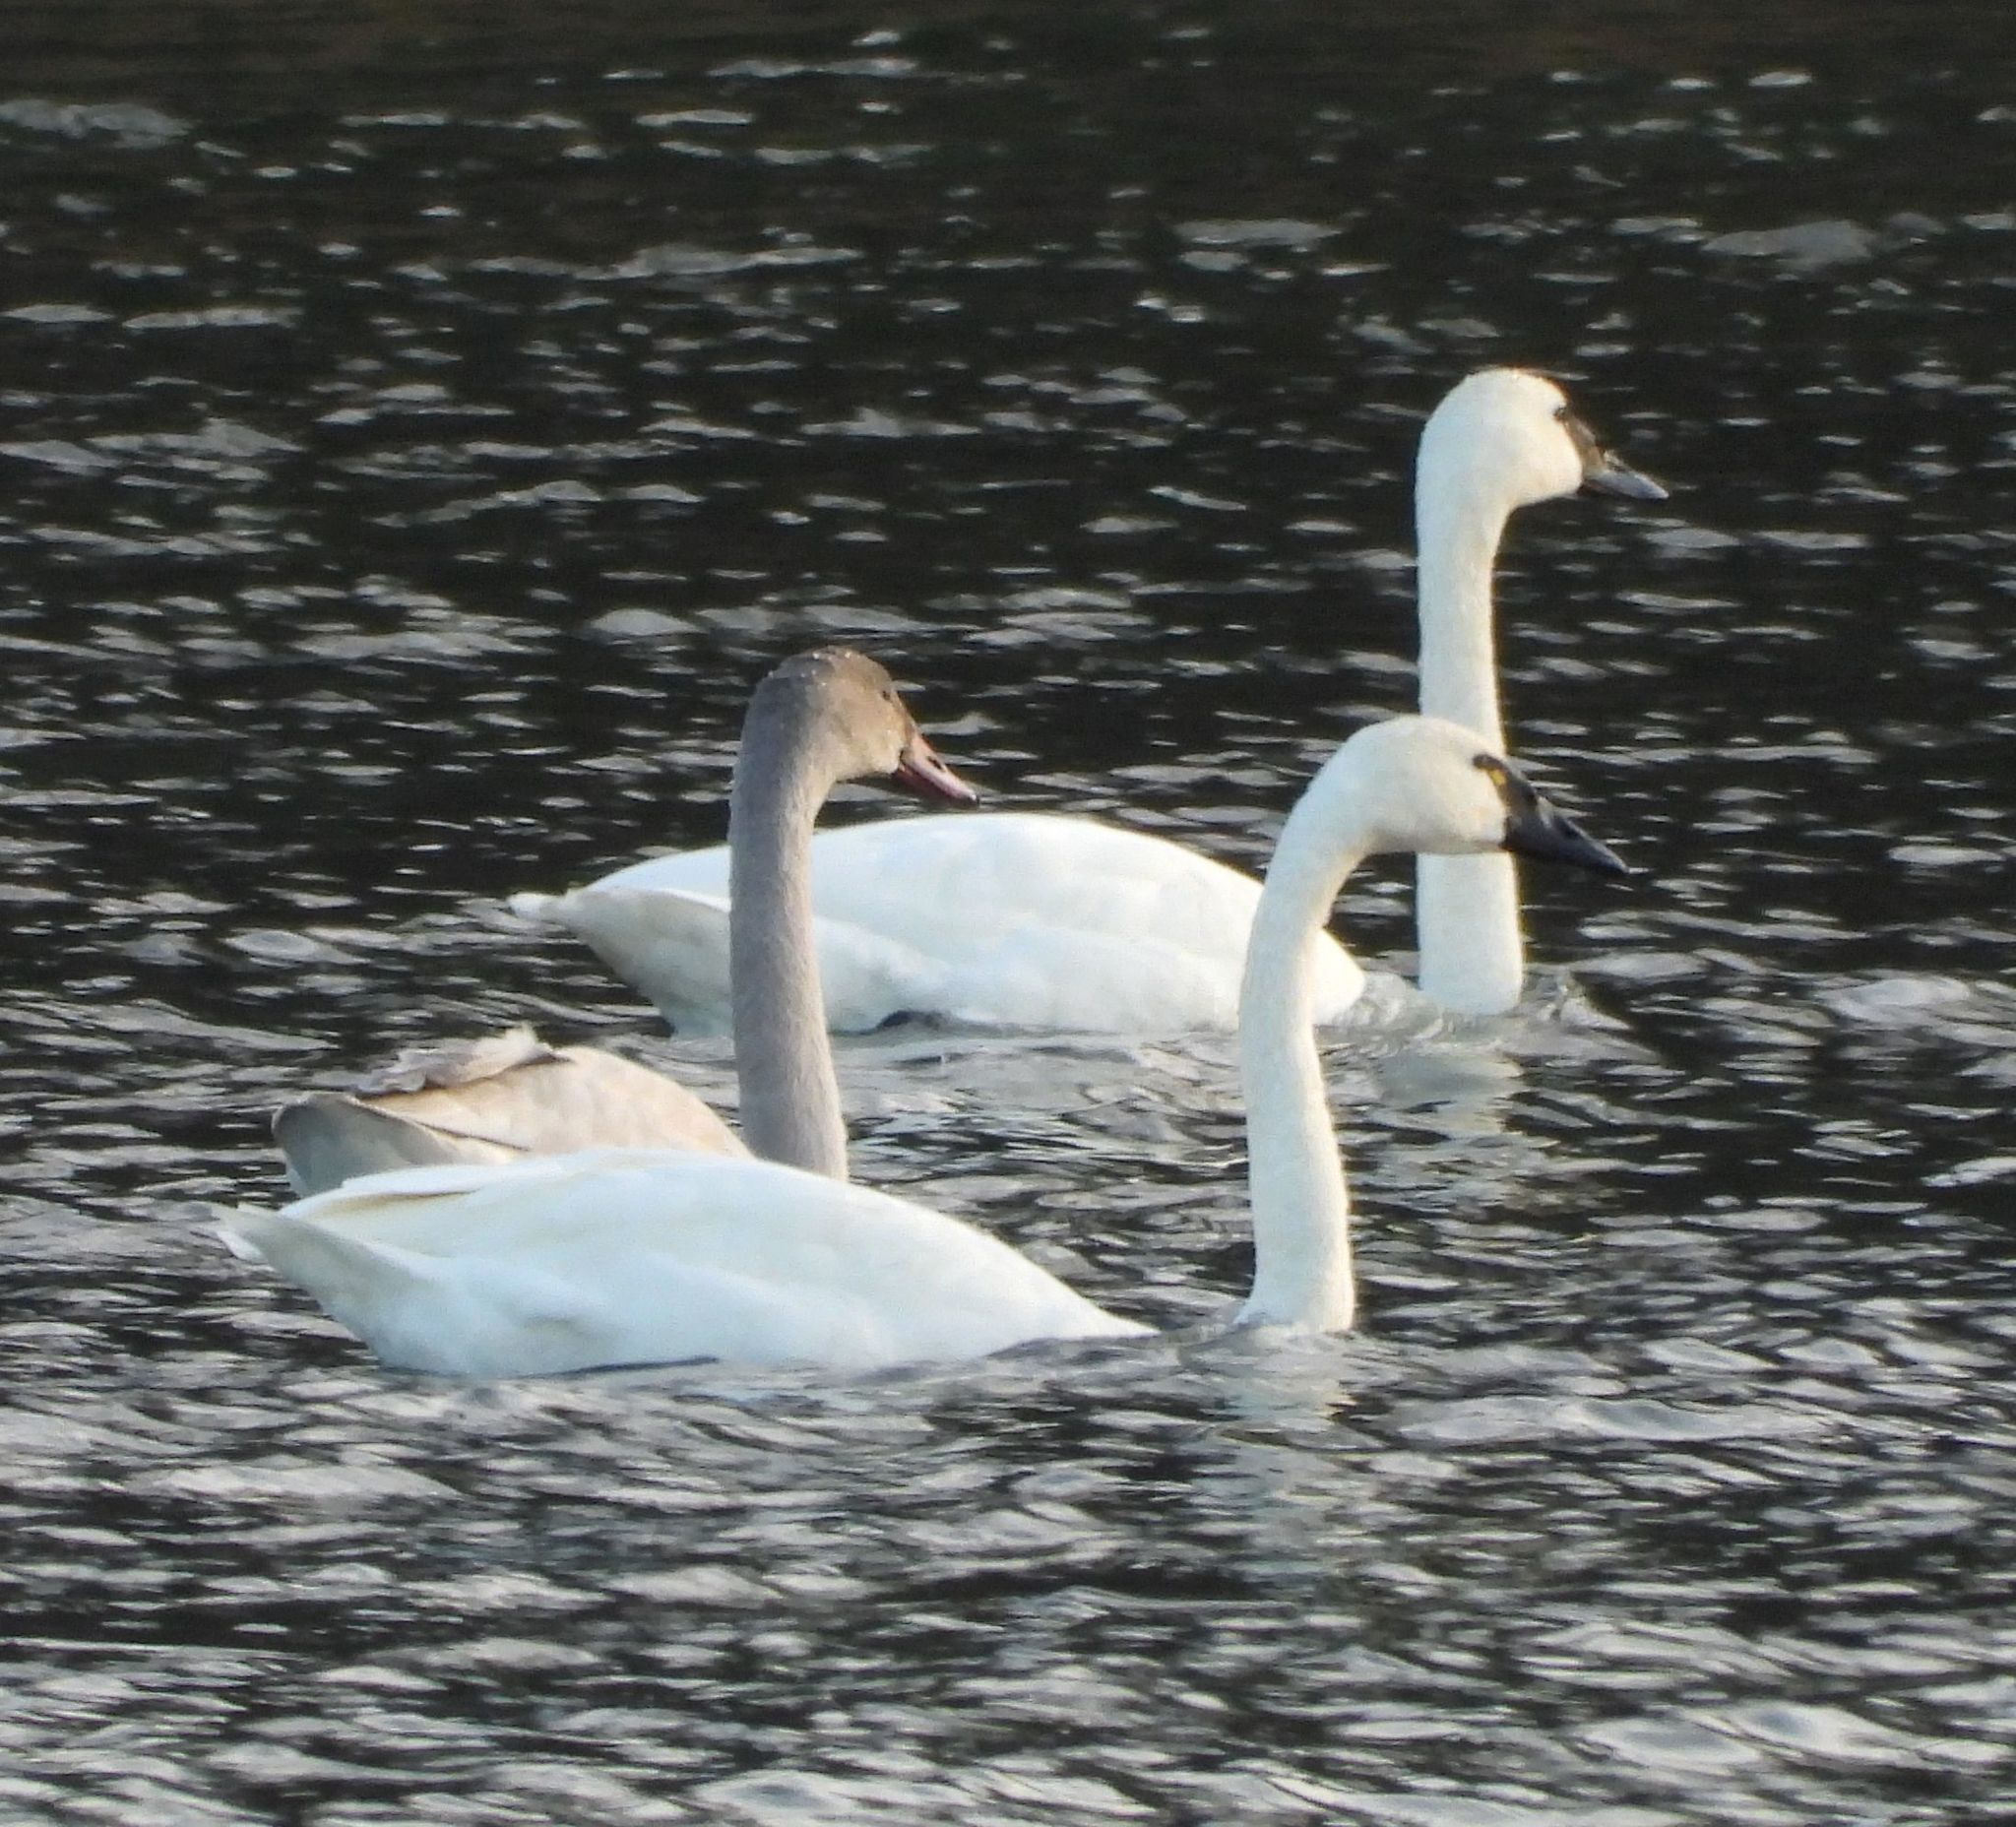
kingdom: Animalia
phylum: Chordata
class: Aves
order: Anseriformes
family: Anatidae
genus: Cygnus
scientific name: Cygnus columbianus
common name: Tundra swan
